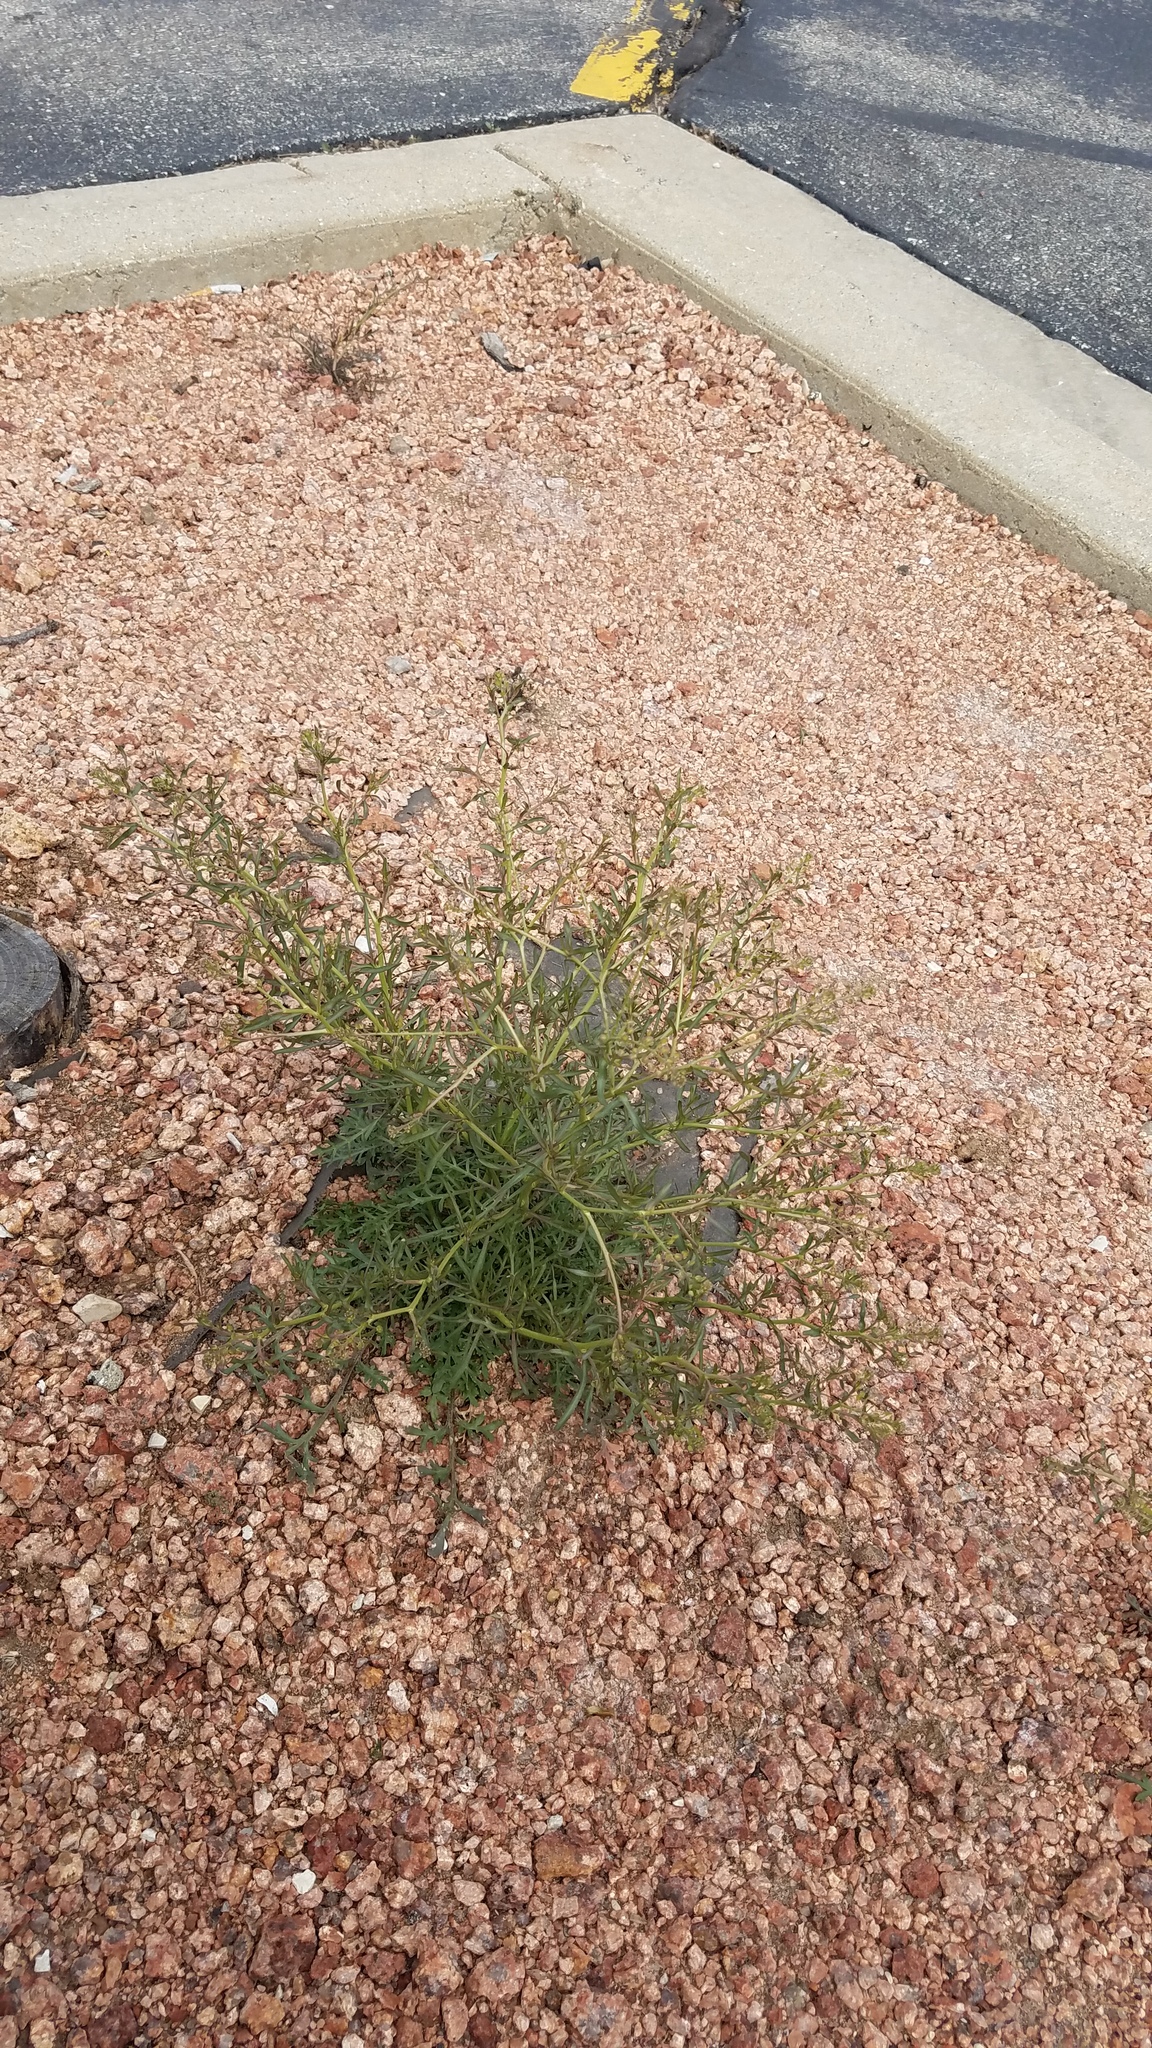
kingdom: Plantae
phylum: Tracheophyta
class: Magnoliopsida
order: Brassicales
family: Brassicaceae
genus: Lepidium
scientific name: Lepidium ruderale
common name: Narrow-leaved pepperwort
